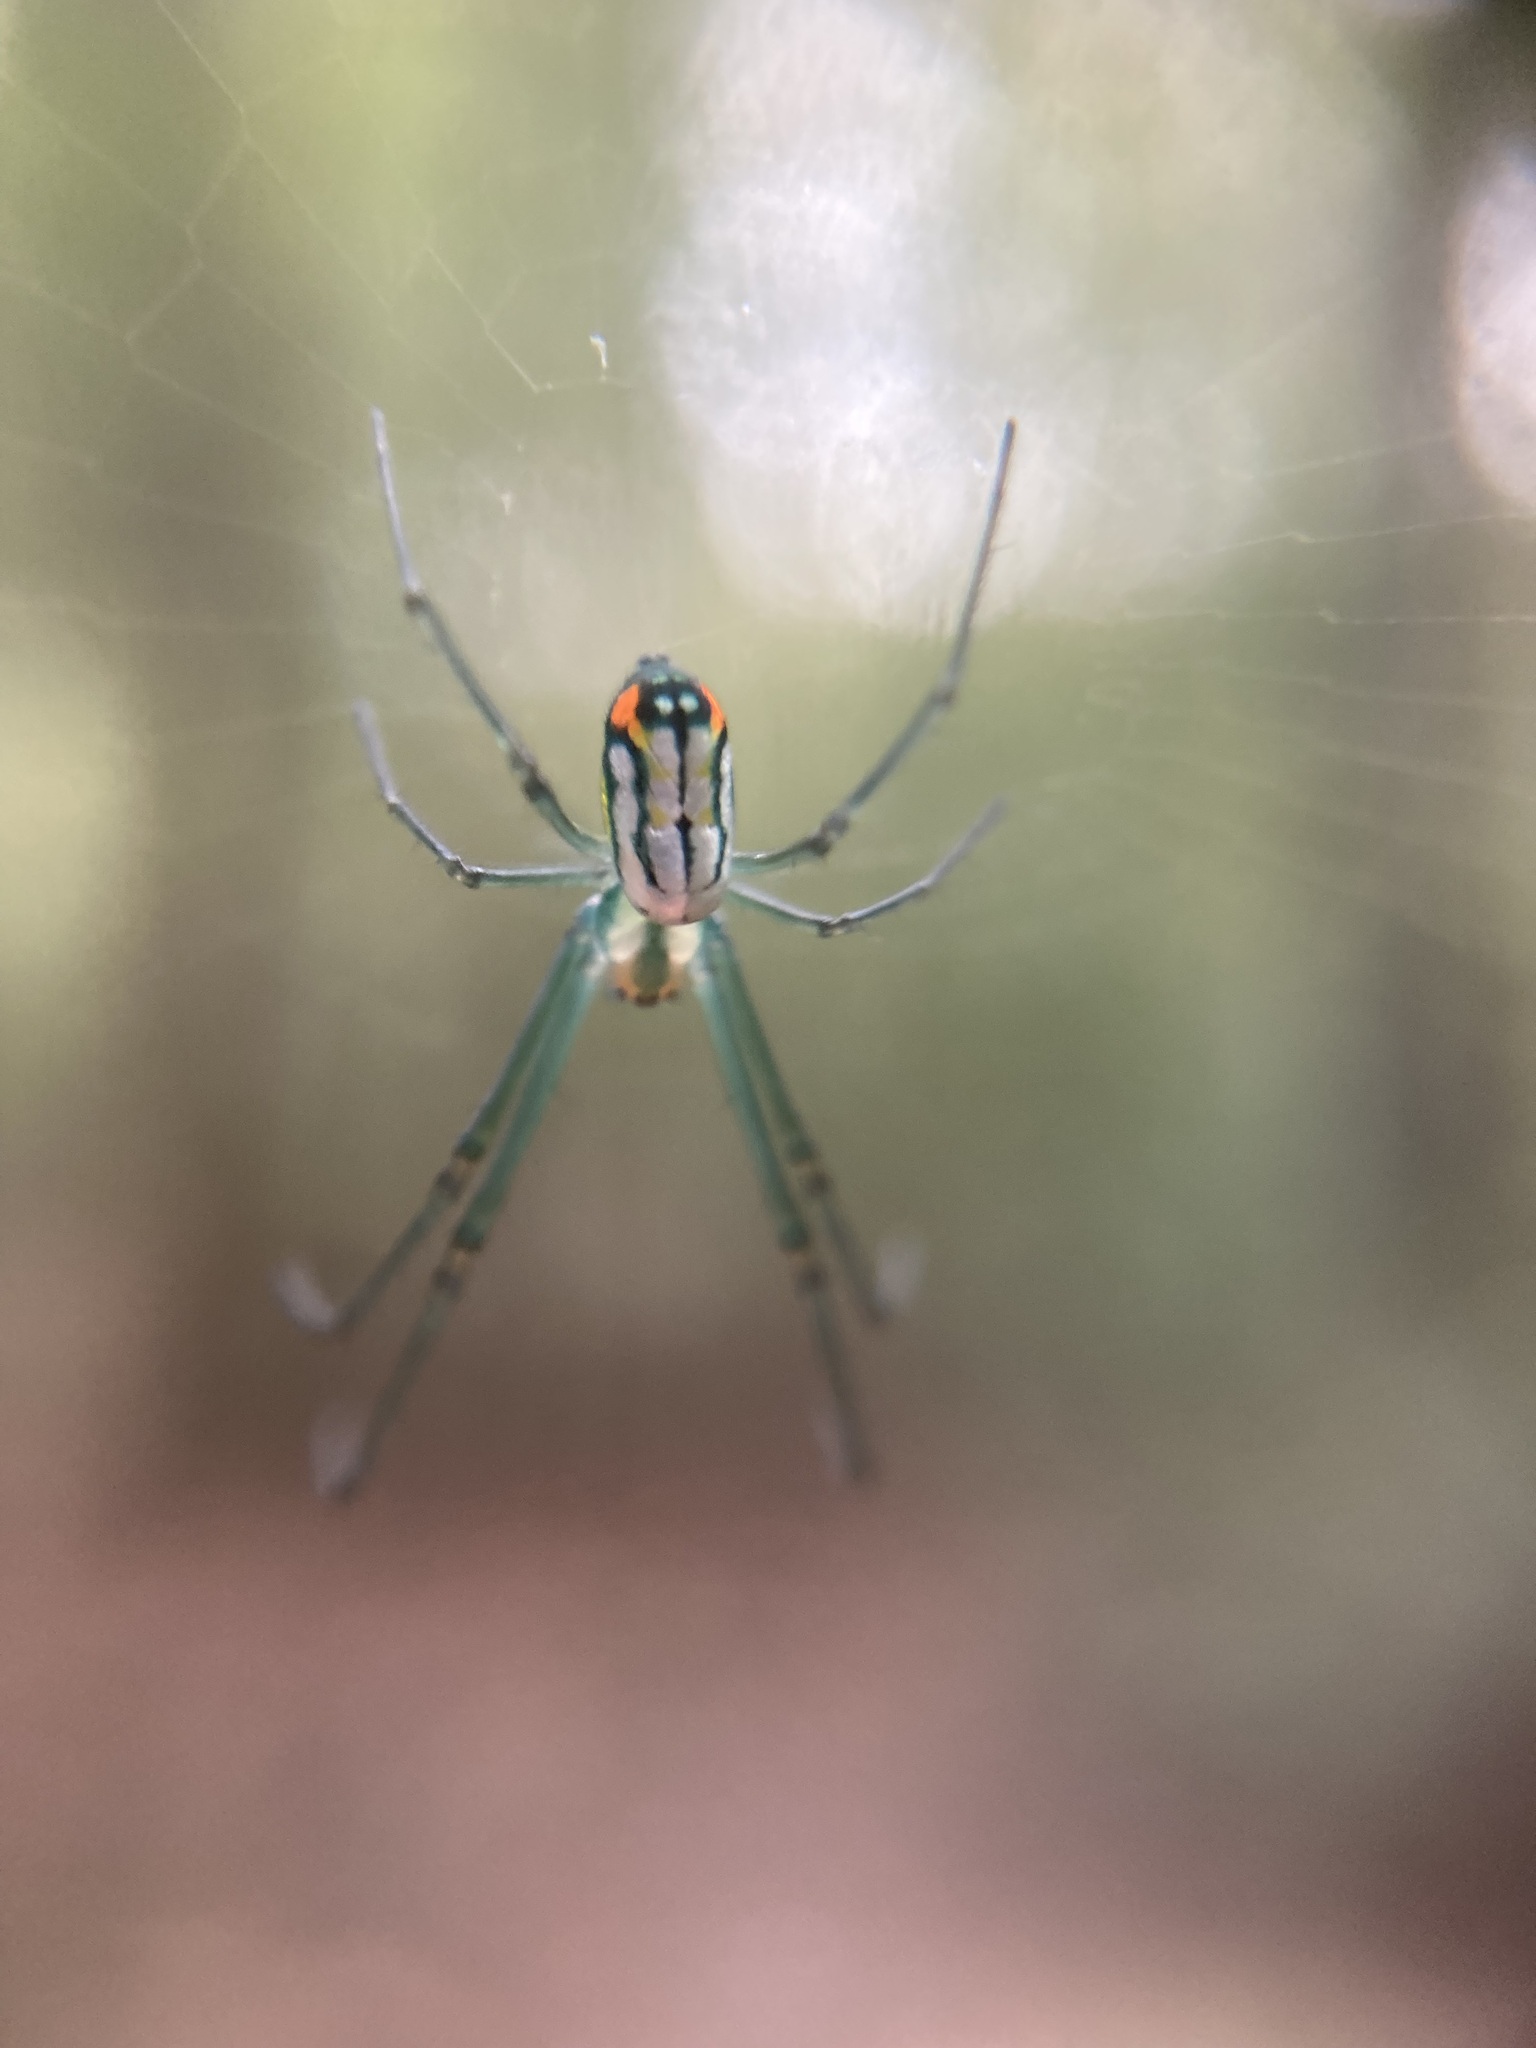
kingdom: Animalia
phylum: Arthropoda
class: Arachnida
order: Araneae
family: Tetragnathidae
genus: Leucauge
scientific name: Leucauge argyrobapta
